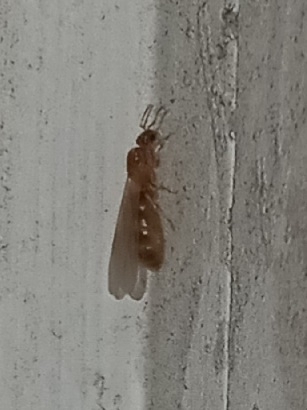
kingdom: Animalia
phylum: Arthropoda
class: Insecta
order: Hymenoptera
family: Formicidae
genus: Brachymyrmex
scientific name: Brachymyrmex depilis
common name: Hairless rover ant
